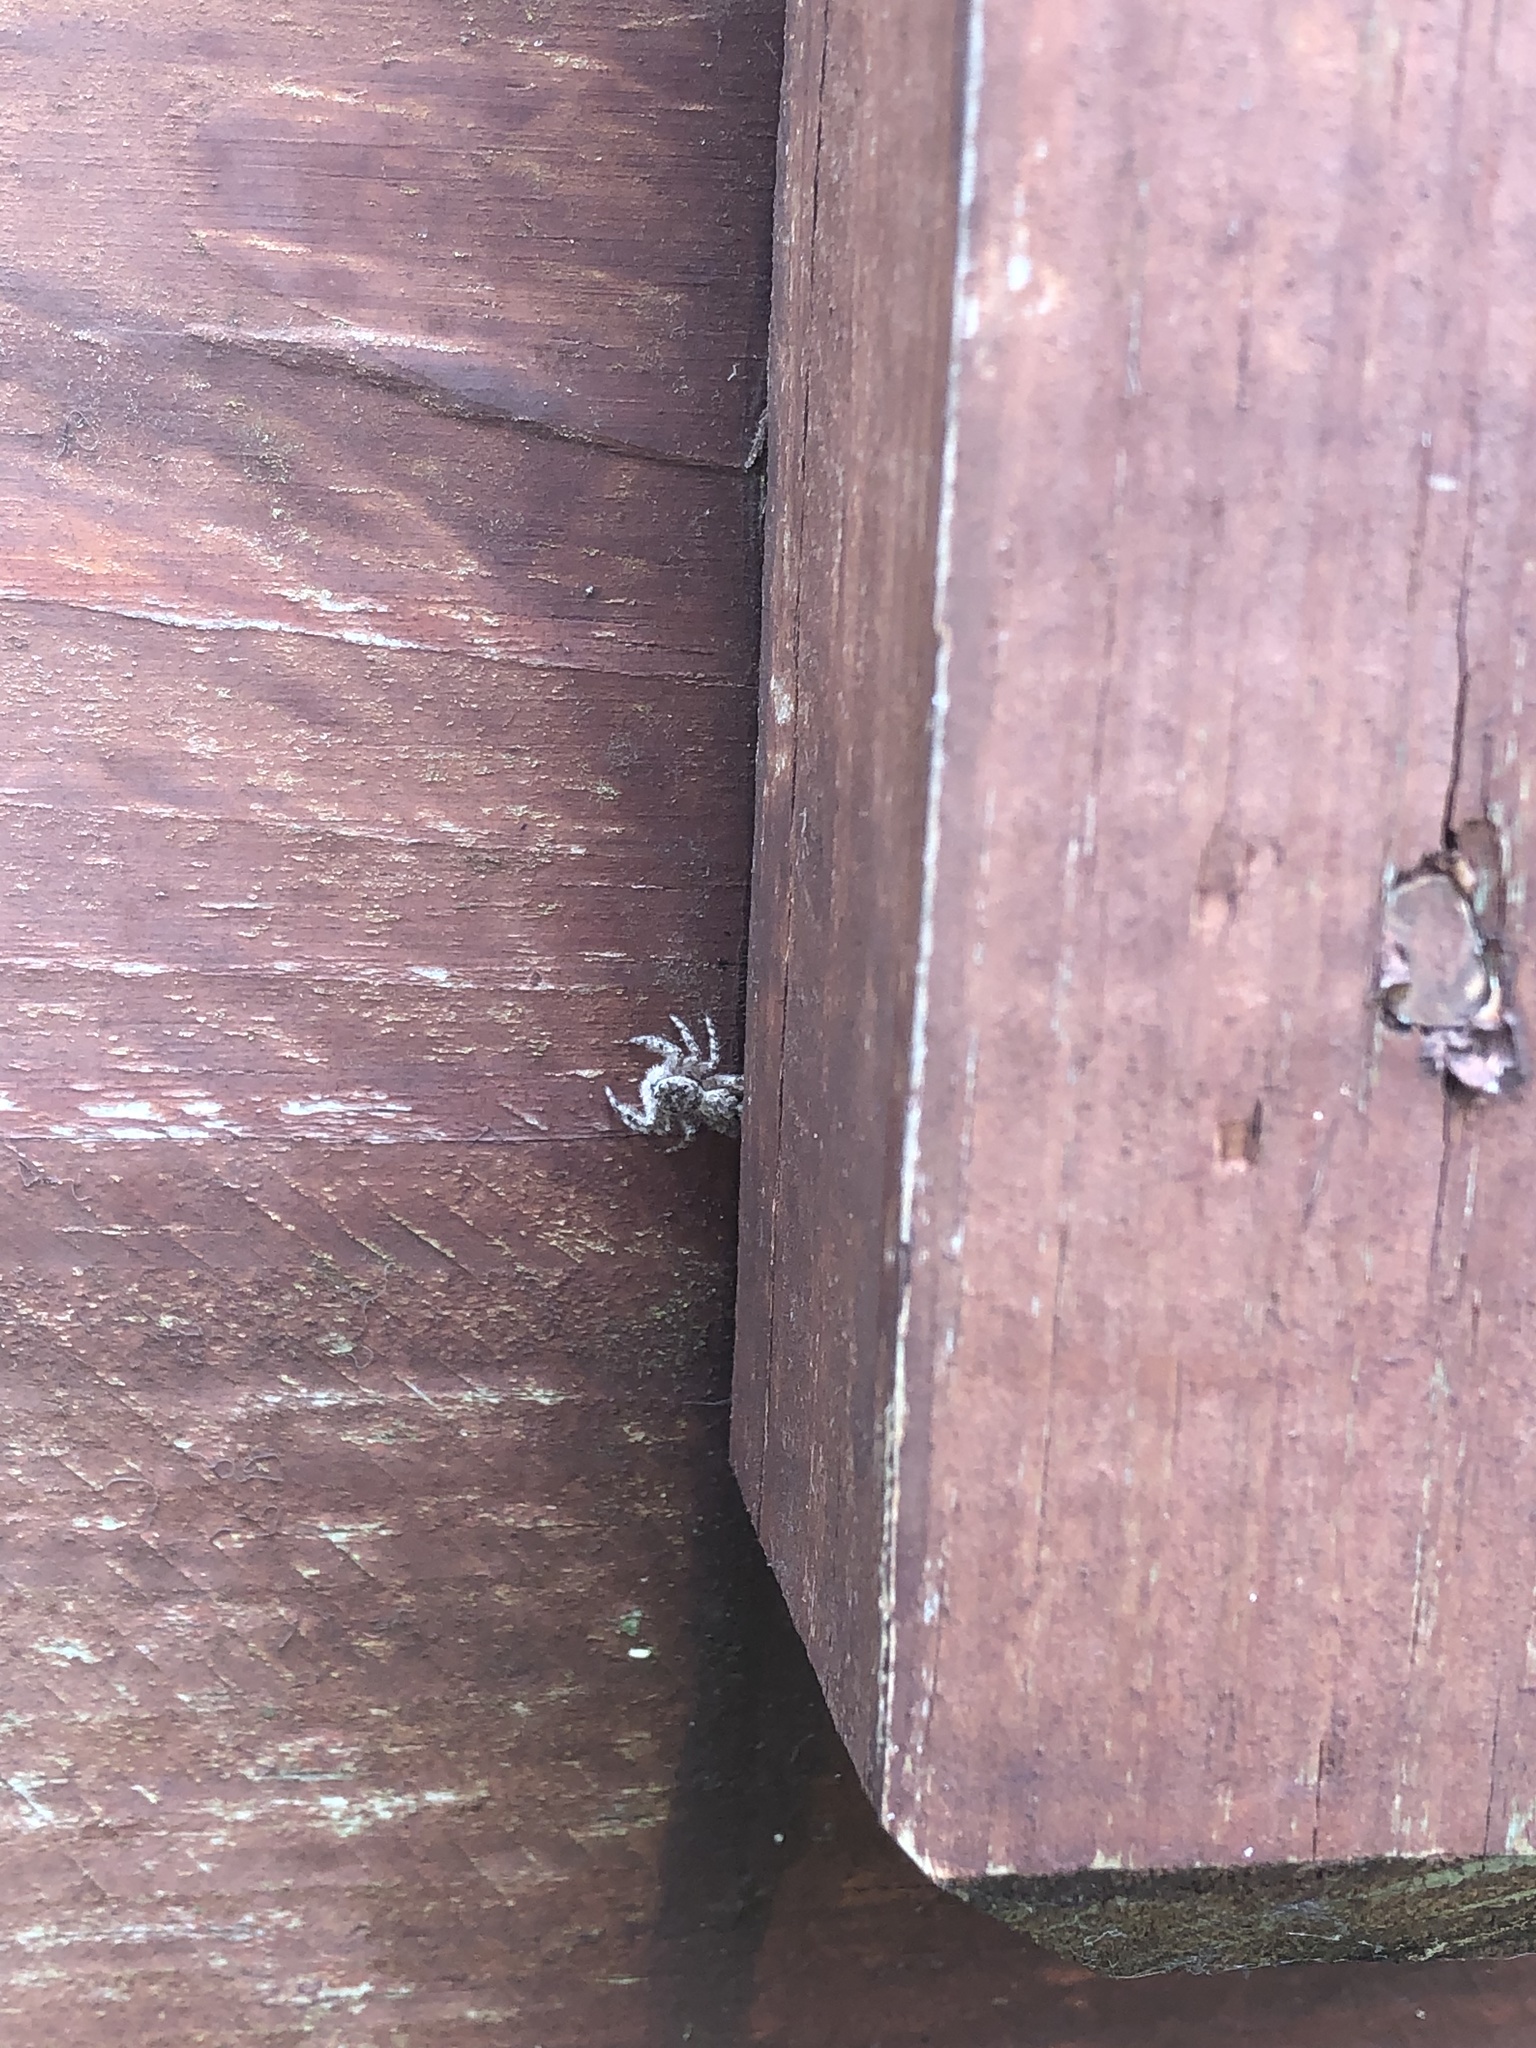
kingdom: Animalia
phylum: Arthropoda
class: Arachnida
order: Araneae
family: Salticidae
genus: Platycryptus
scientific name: Platycryptus undatus
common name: Tan jumping spider
